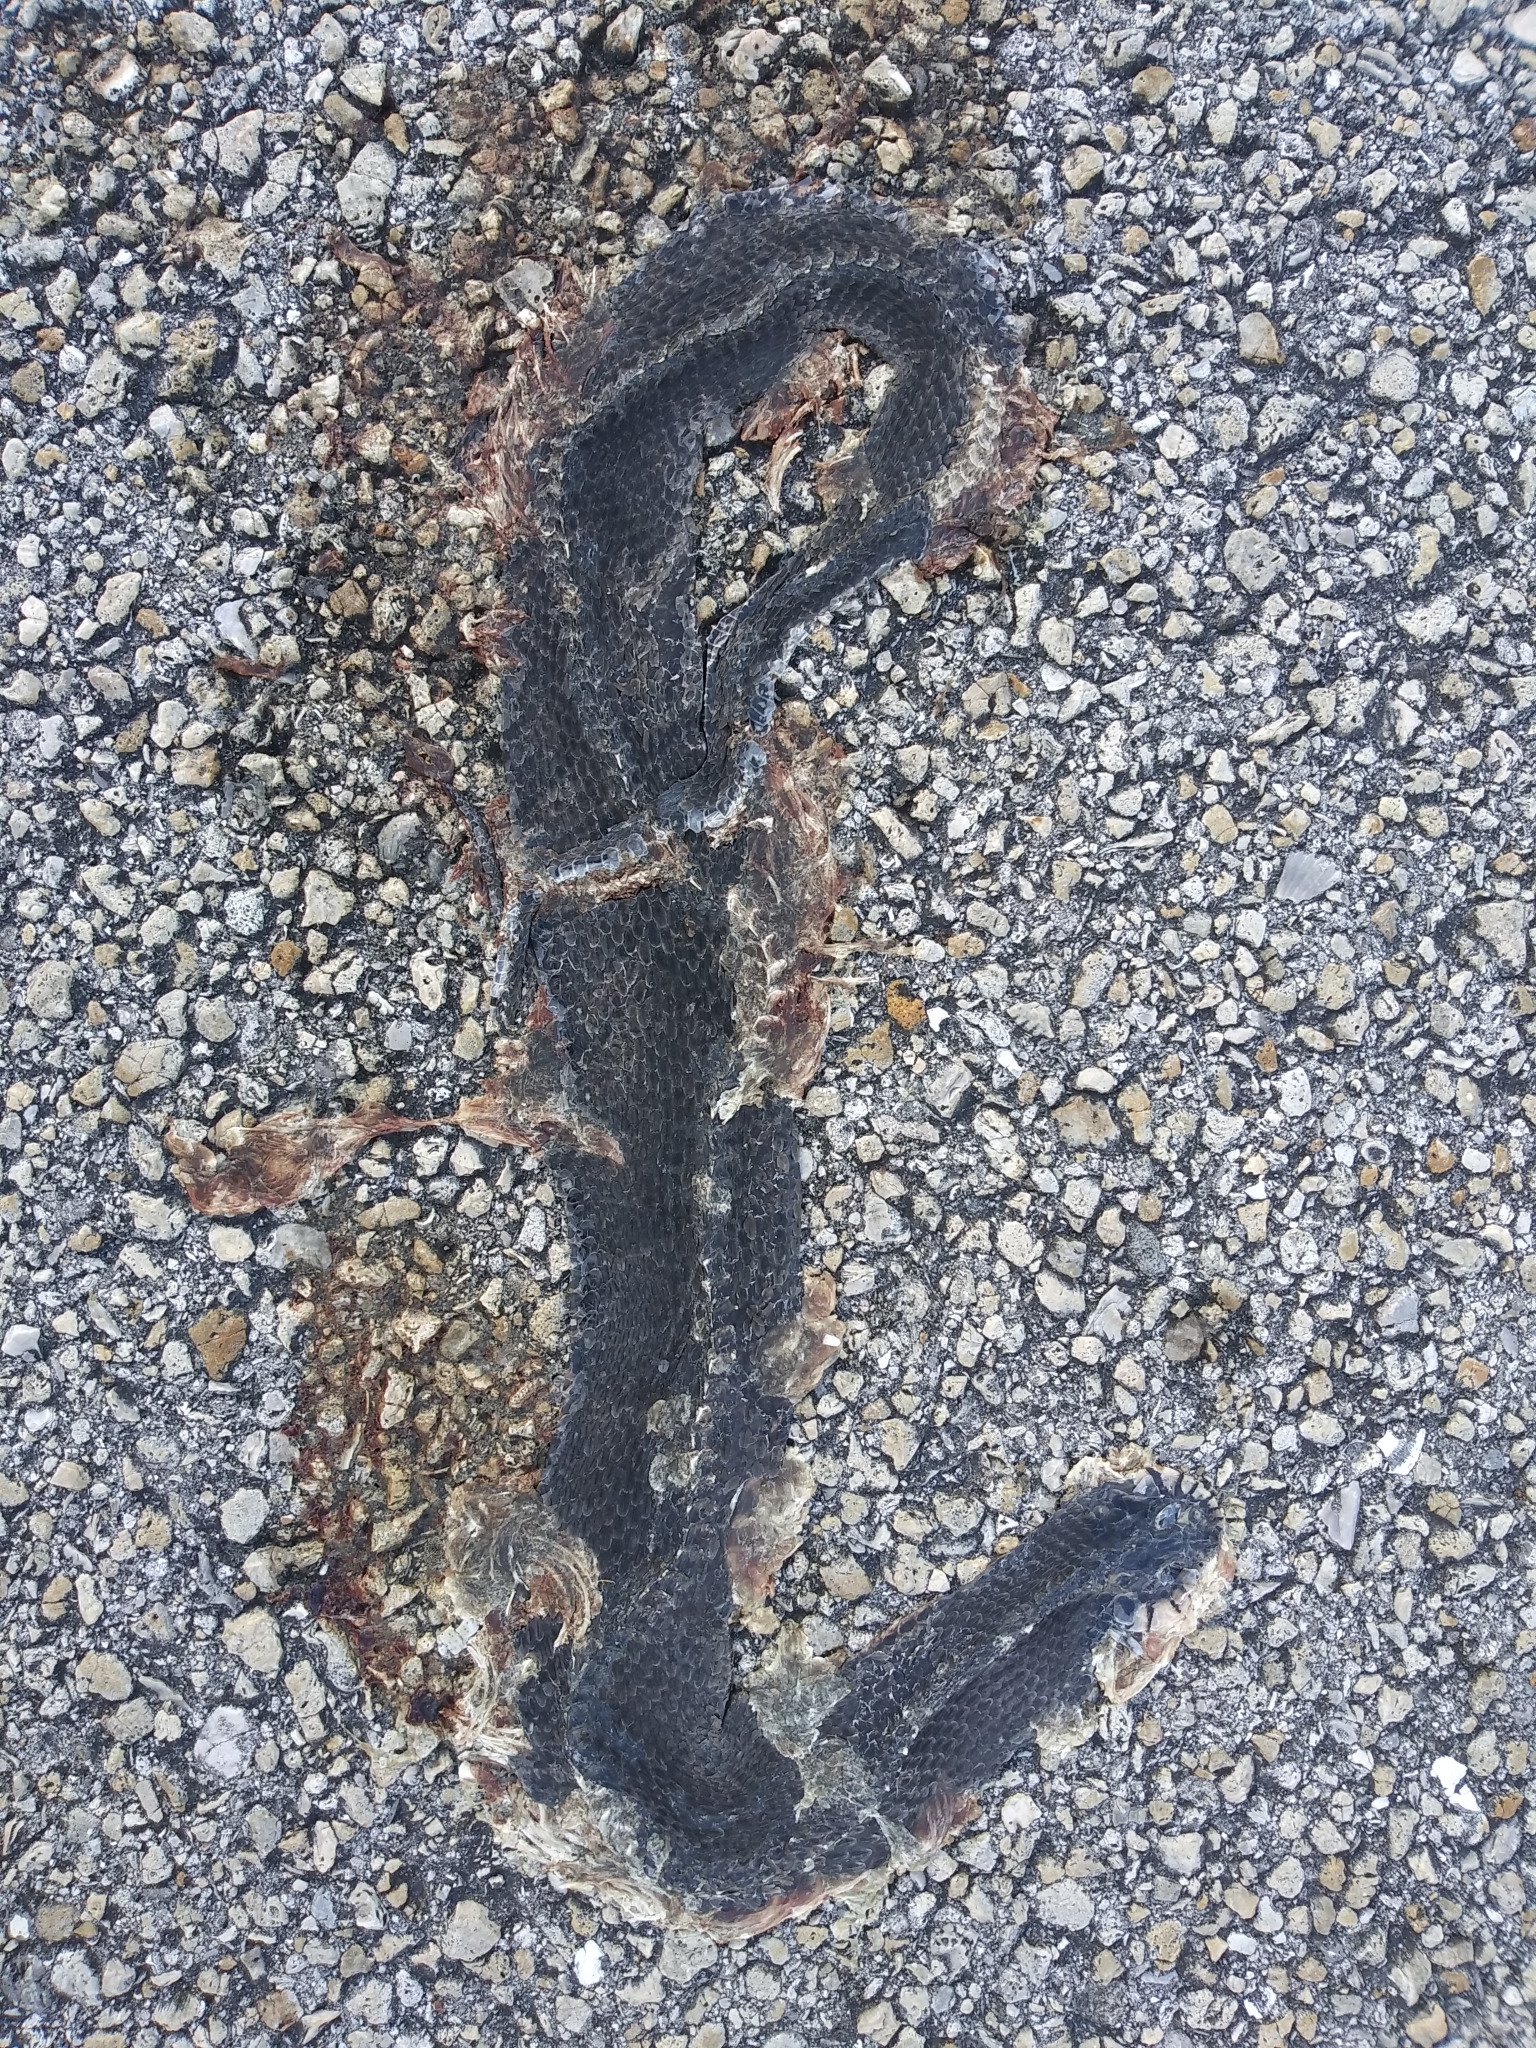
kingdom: Animalia
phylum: Chordata
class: Squamata
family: Colubridae
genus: Nerodia
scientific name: Nerodia fasciata
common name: Southern water snake
